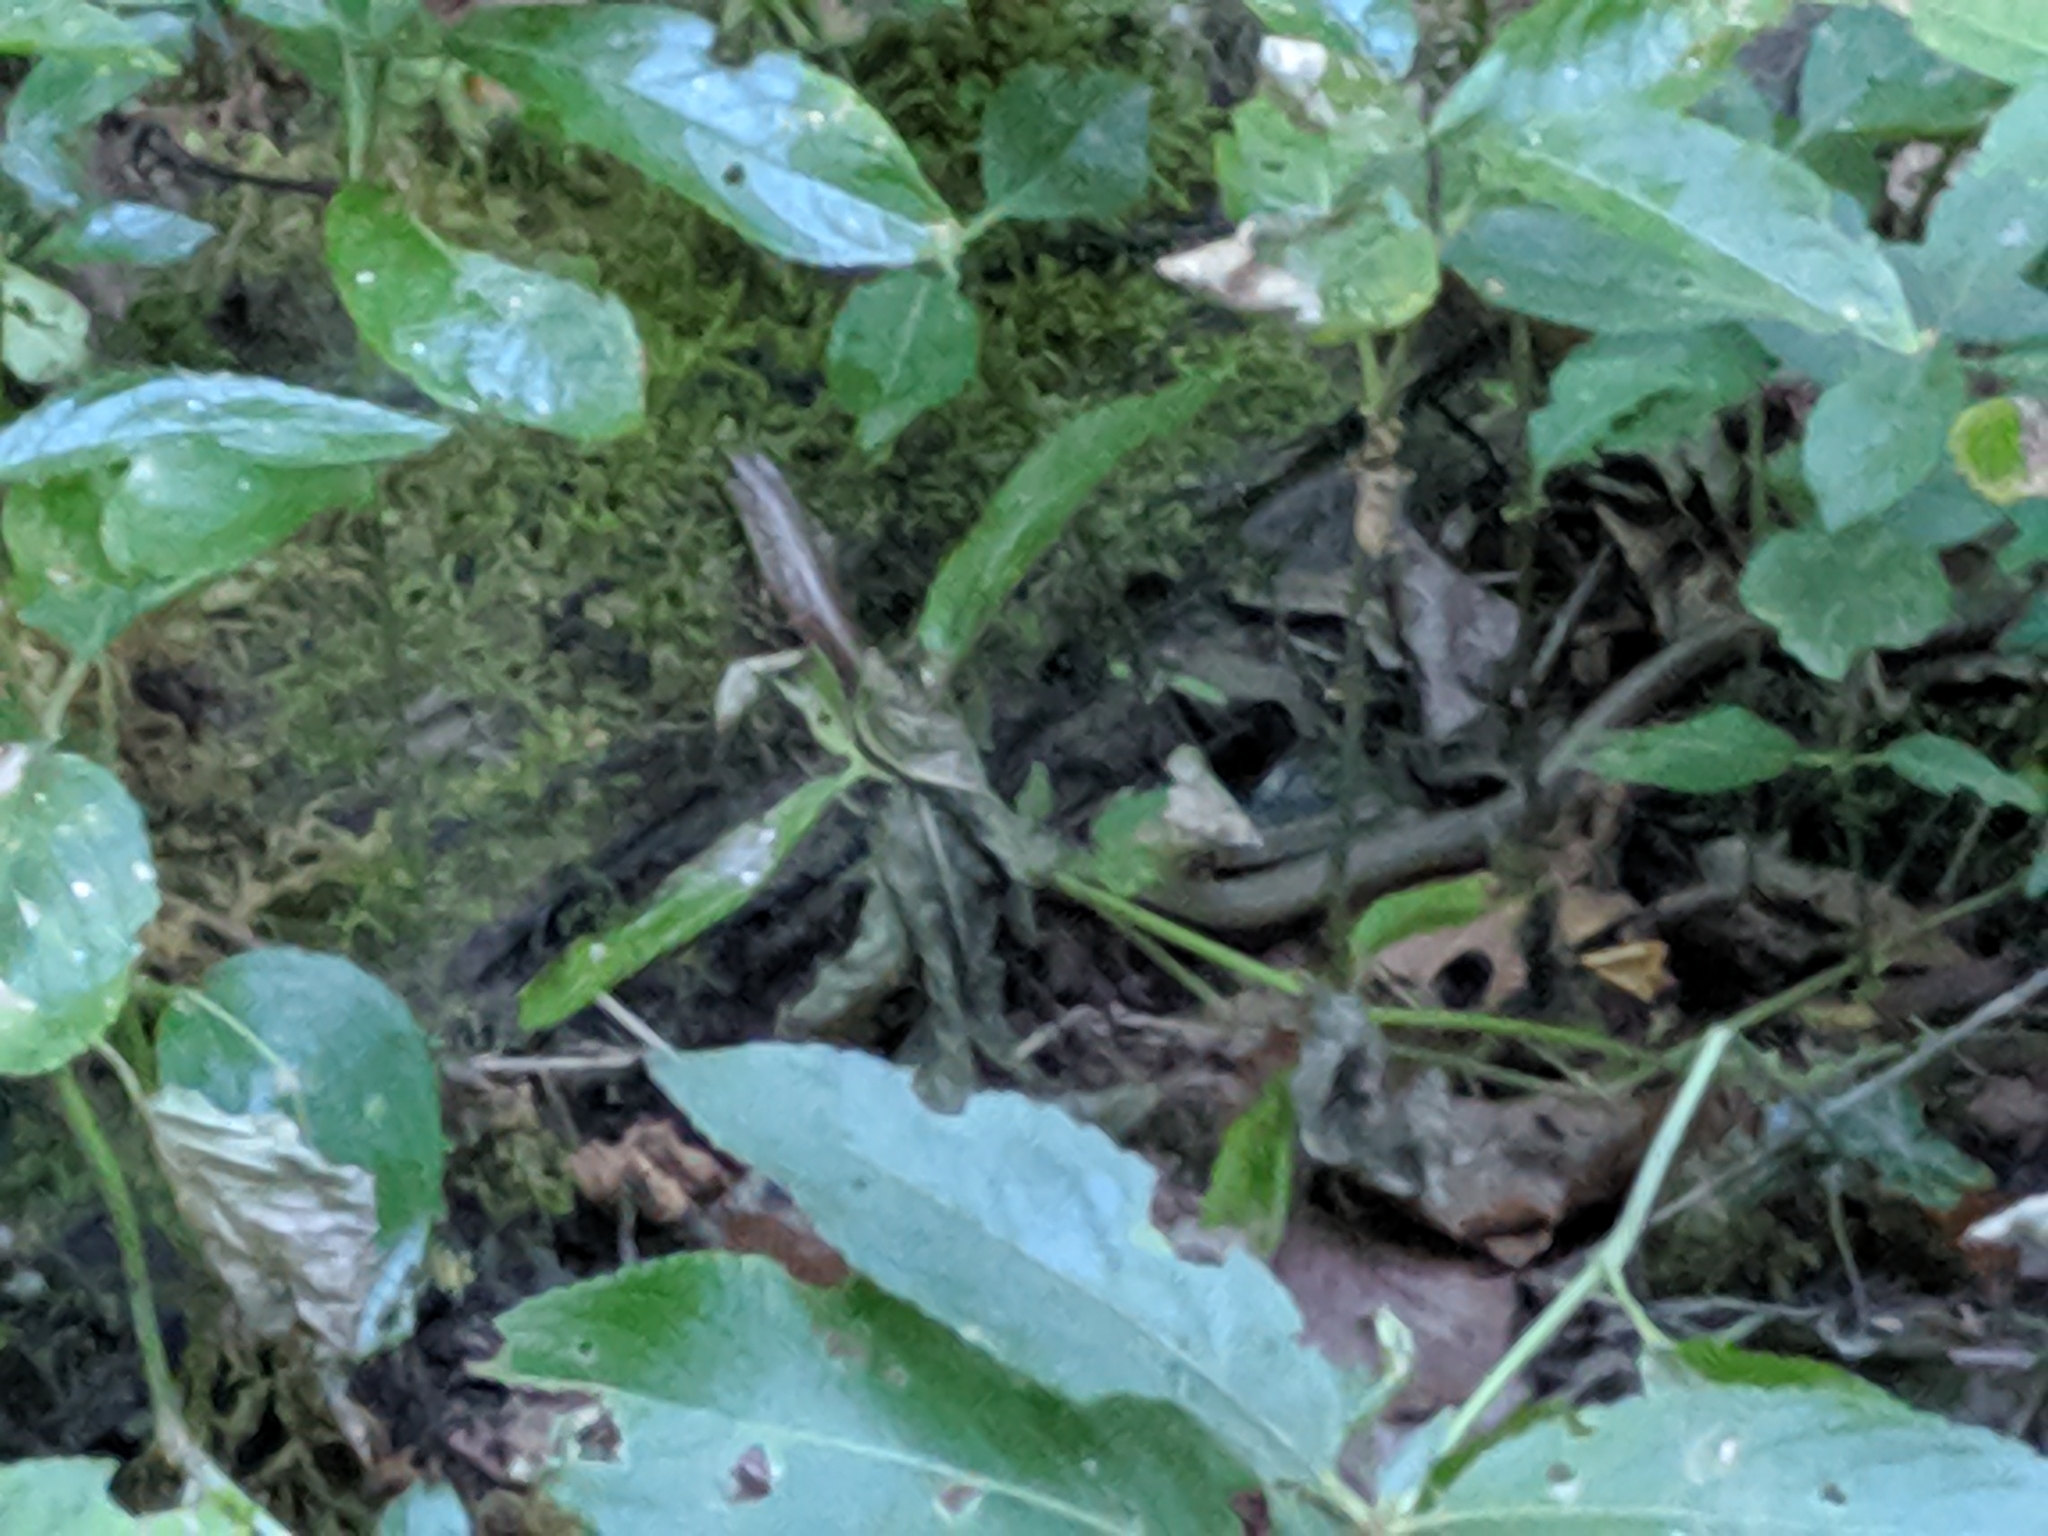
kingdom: Animalia
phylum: Chordata
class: Squamata
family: Anguidae
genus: Anguis
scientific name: Anguis fragilis
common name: Slow worm
